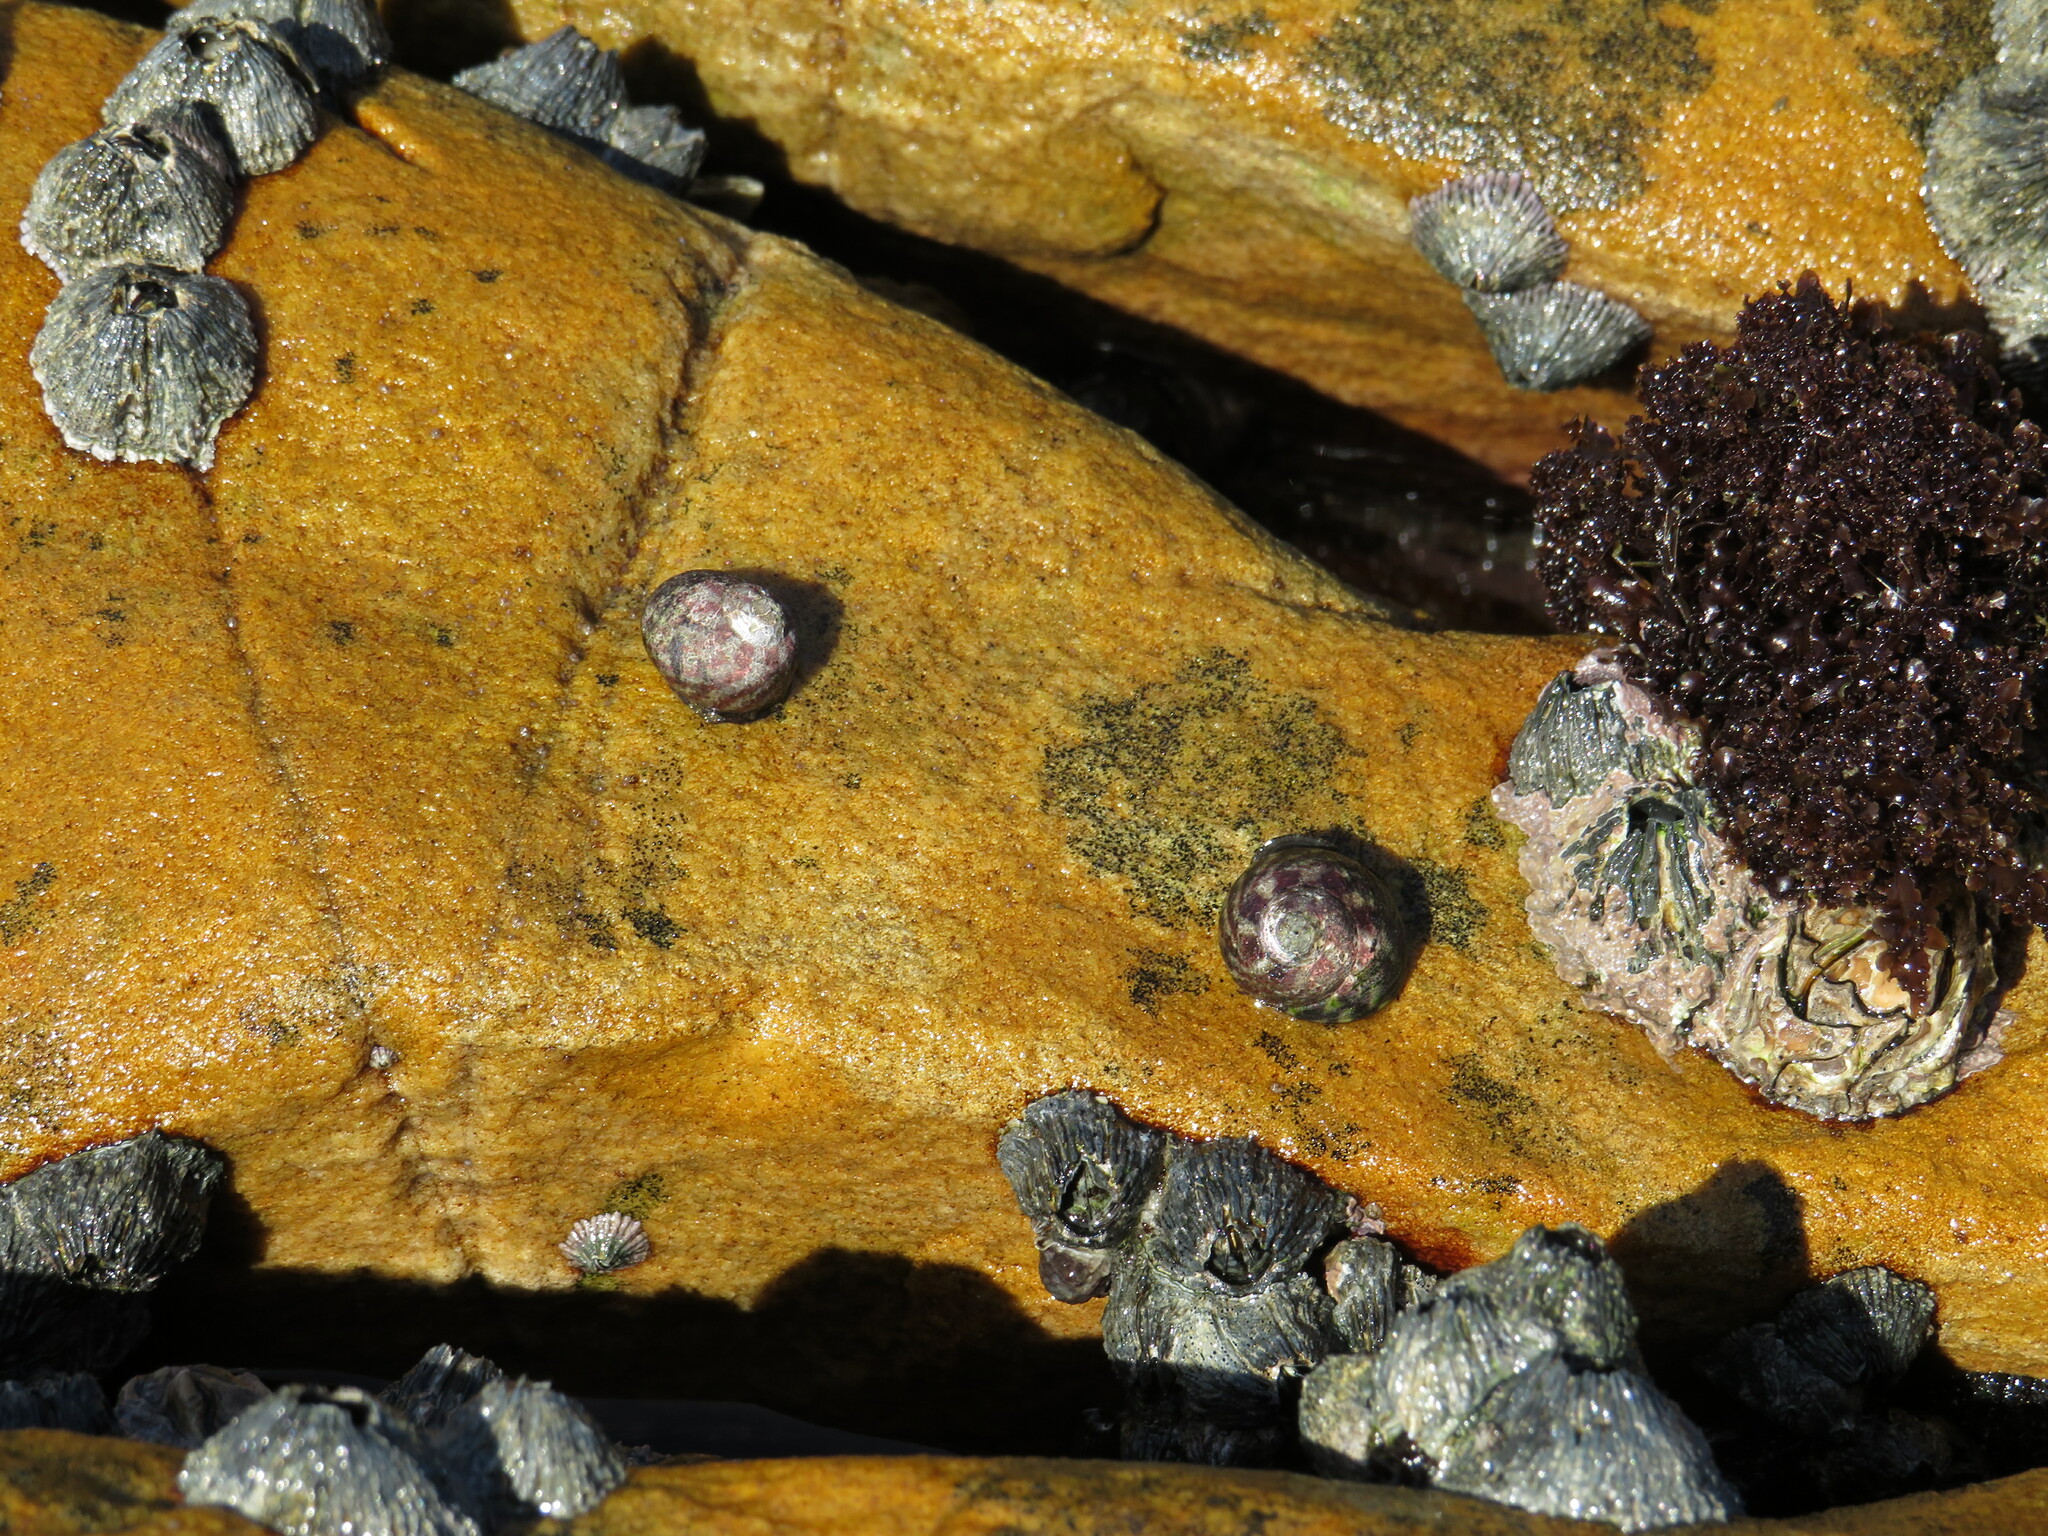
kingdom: Animalia
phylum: Mollusca
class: Gastropoda
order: Trochida
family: Trochidae
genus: Oxystele
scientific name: Oxystele antoni
